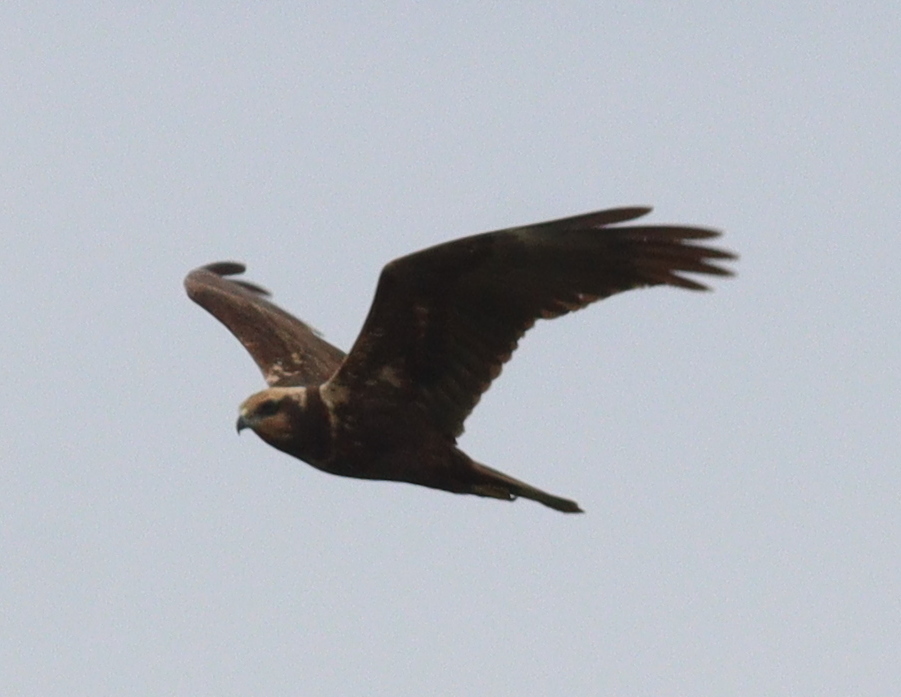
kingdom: Animalia
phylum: Chordata
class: Aves
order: Accipitriformes
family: Accipitridae
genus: Circus
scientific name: Circus aeruginosus
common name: Western marsh harrier
